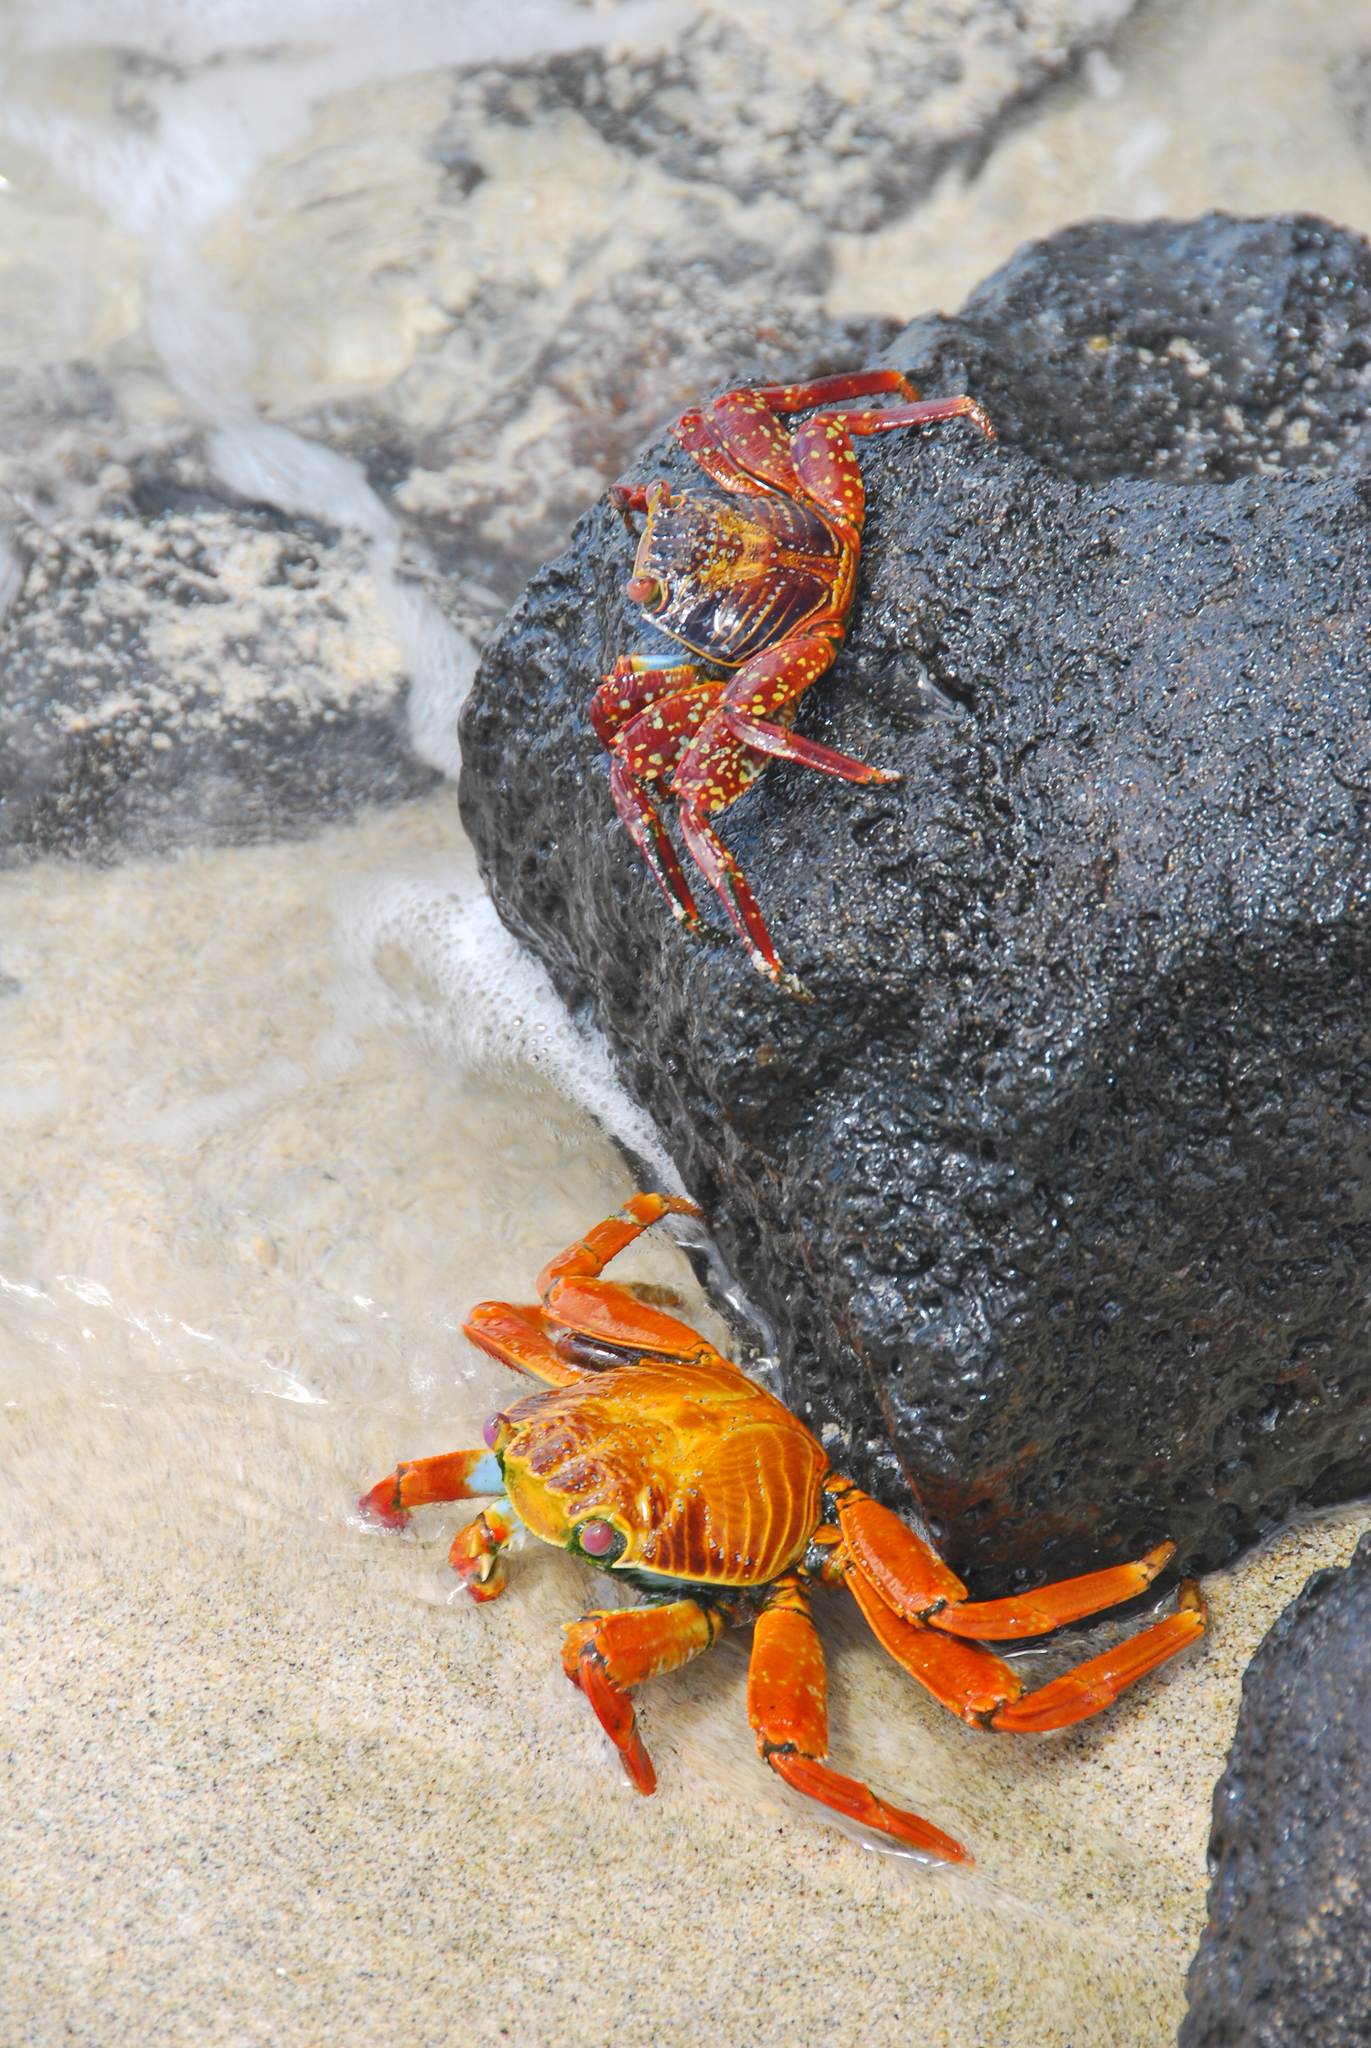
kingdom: Animalia
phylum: Arthropoda
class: Malacostraca
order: Decapoda
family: Grapsidae
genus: Grapsus
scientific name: Grapsus grapsus
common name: Sally lightfoot
